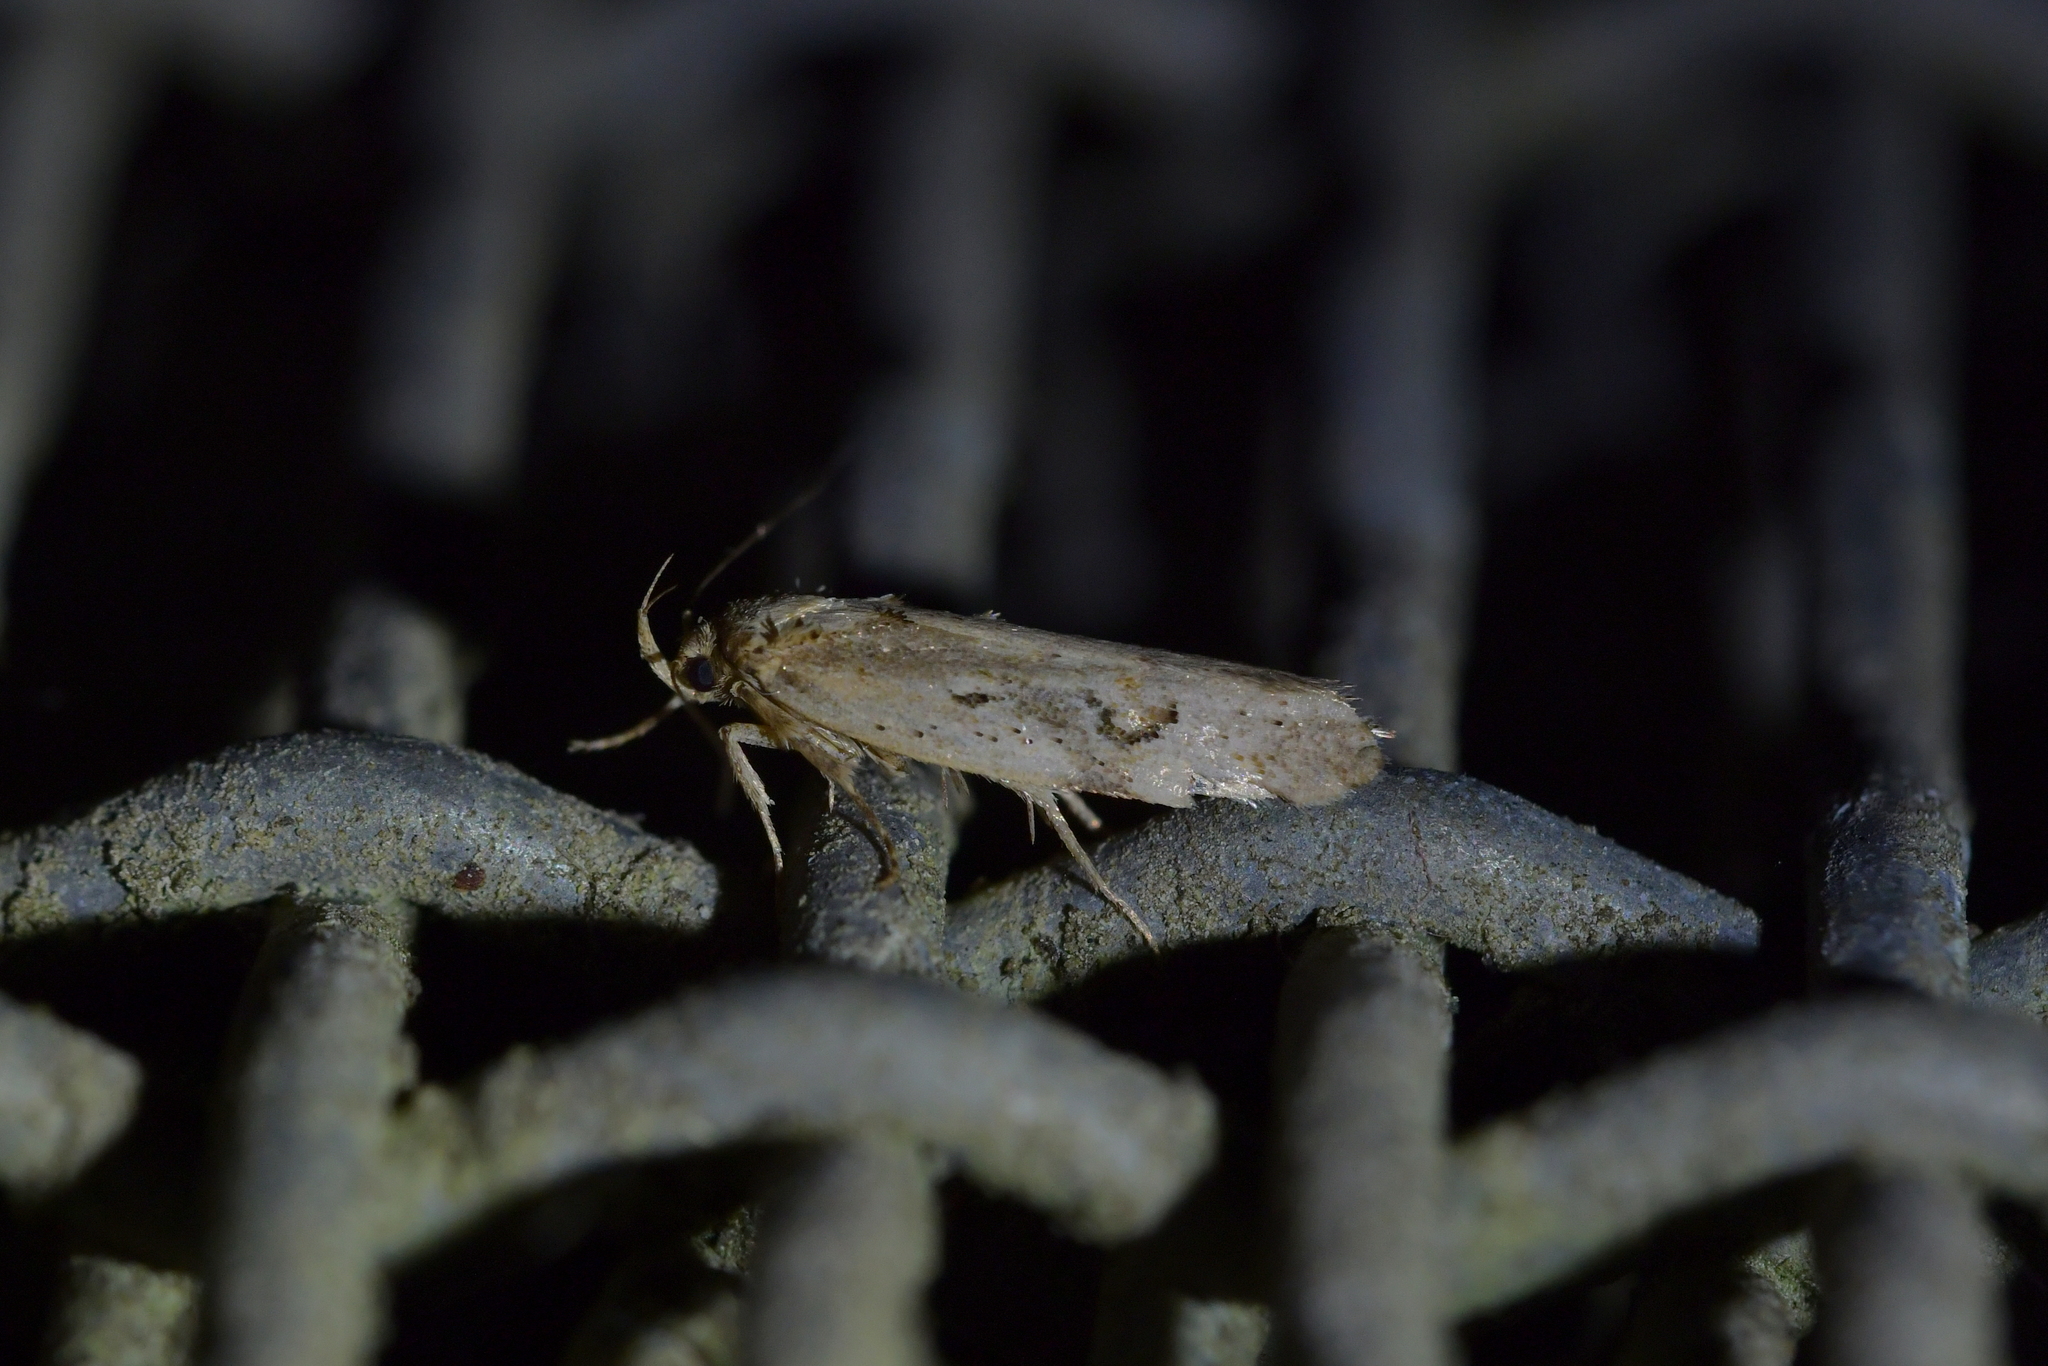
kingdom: Animalia
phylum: Arthropoda
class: Insecta
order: Lepidoptera
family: Oecophoridae
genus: Atomotricha
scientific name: Atomotricha isogama
